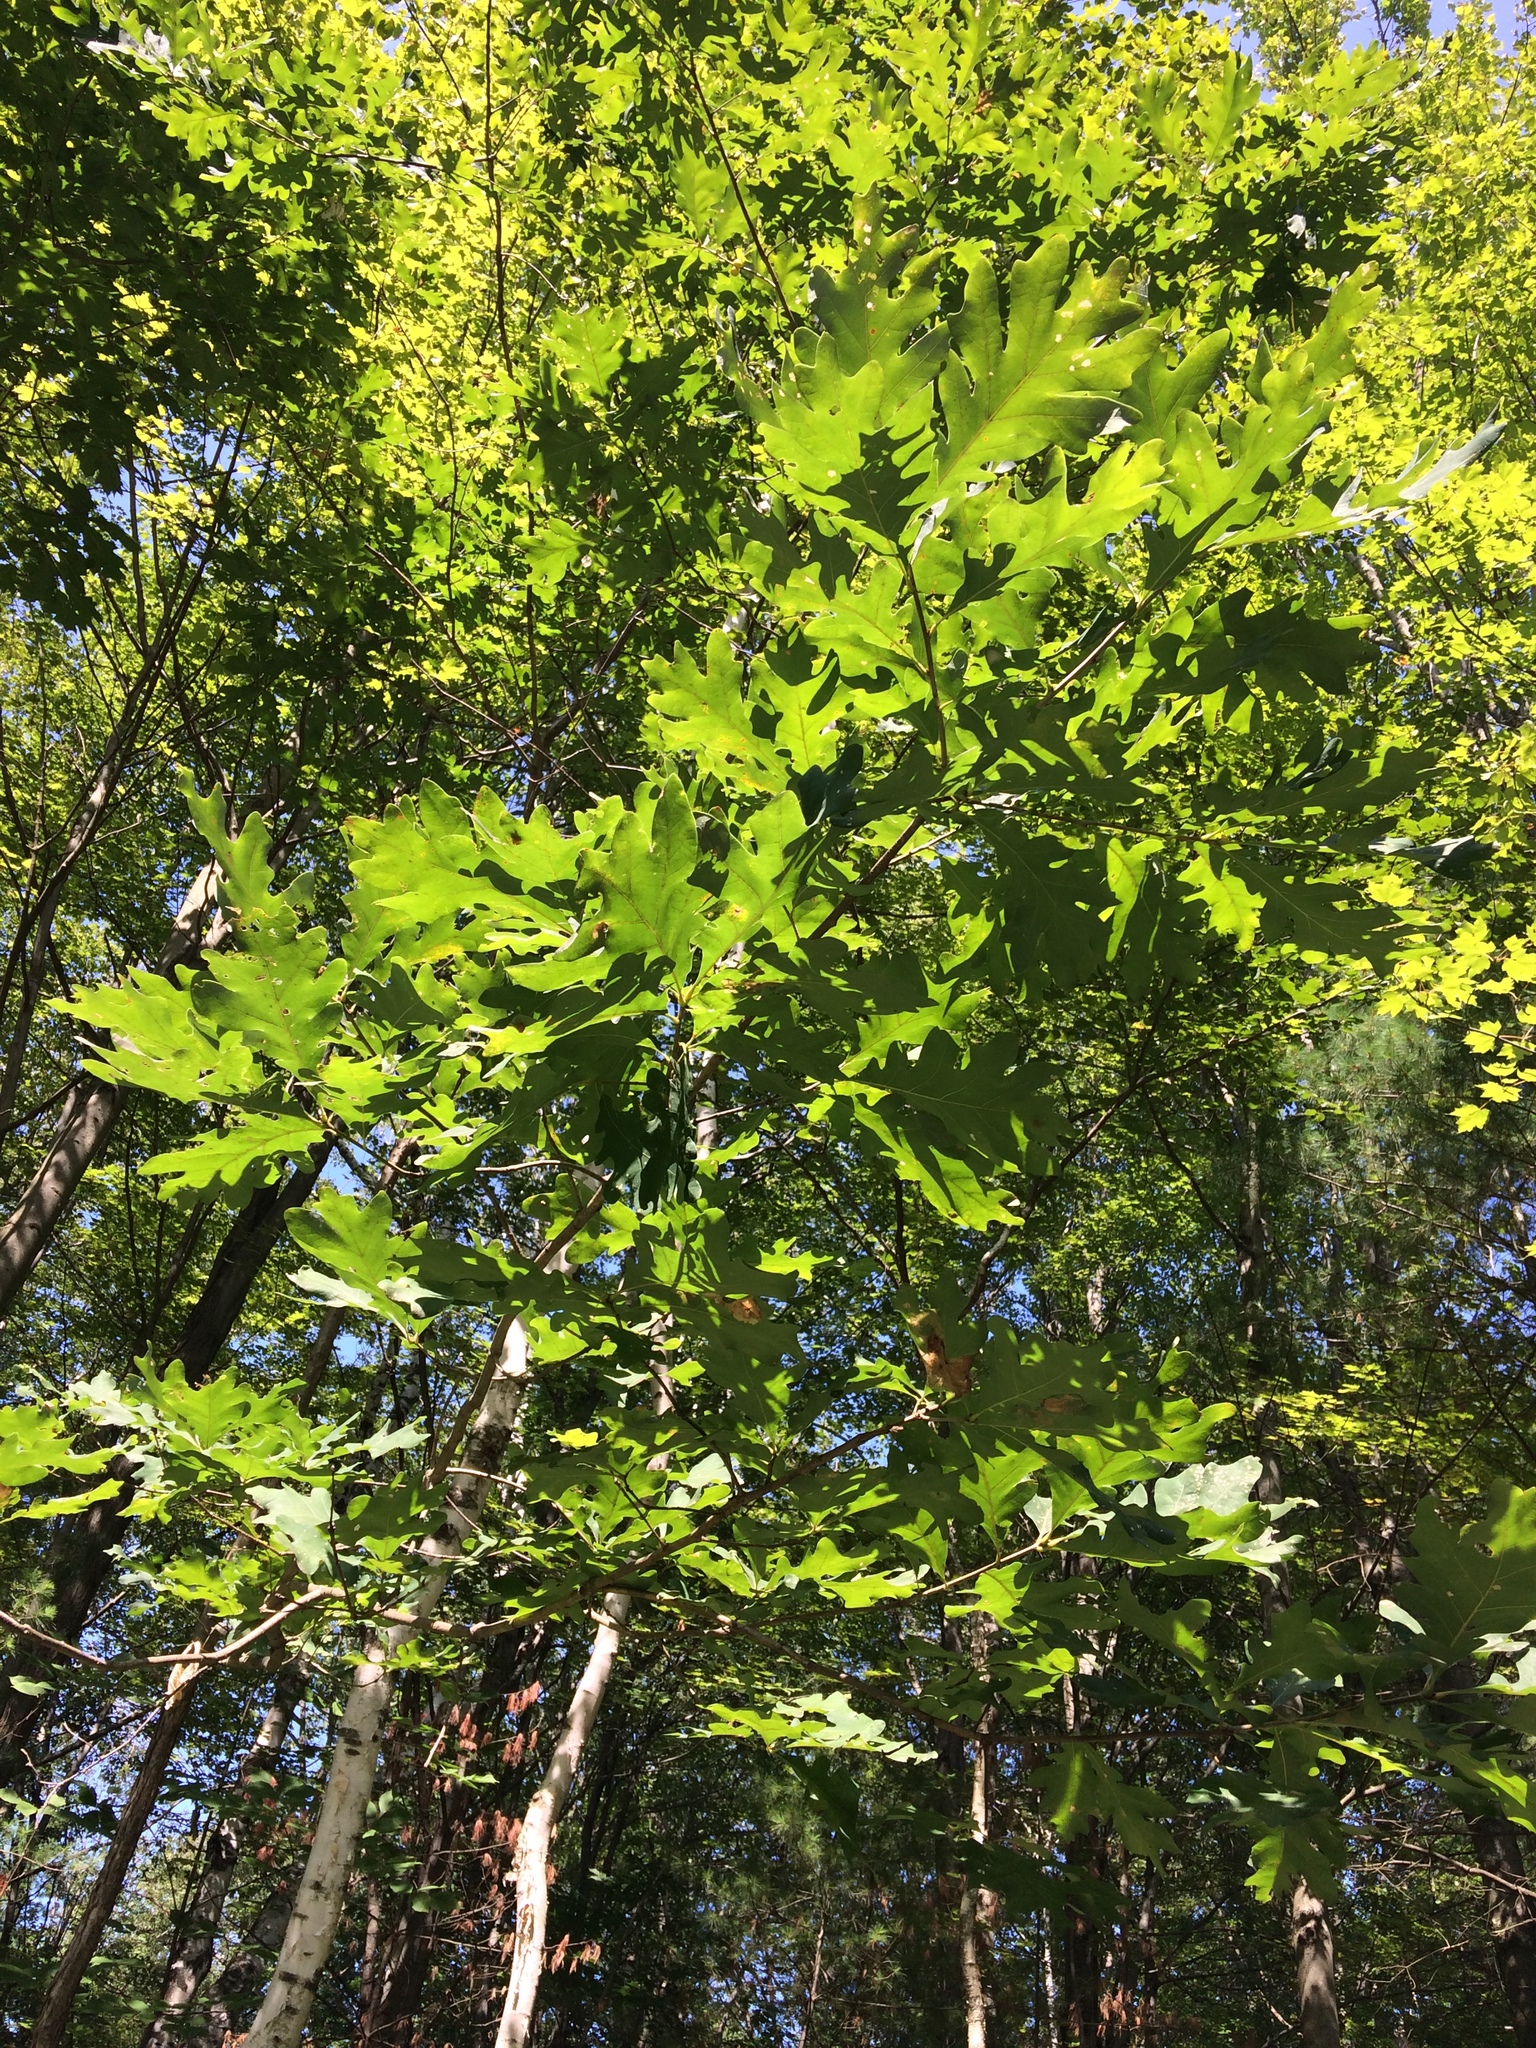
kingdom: Plantae
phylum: Tracheophyta
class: Magnoliopsida
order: Fagales
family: Fagaceae
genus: Quercus
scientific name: Quercus alba
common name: White oak
